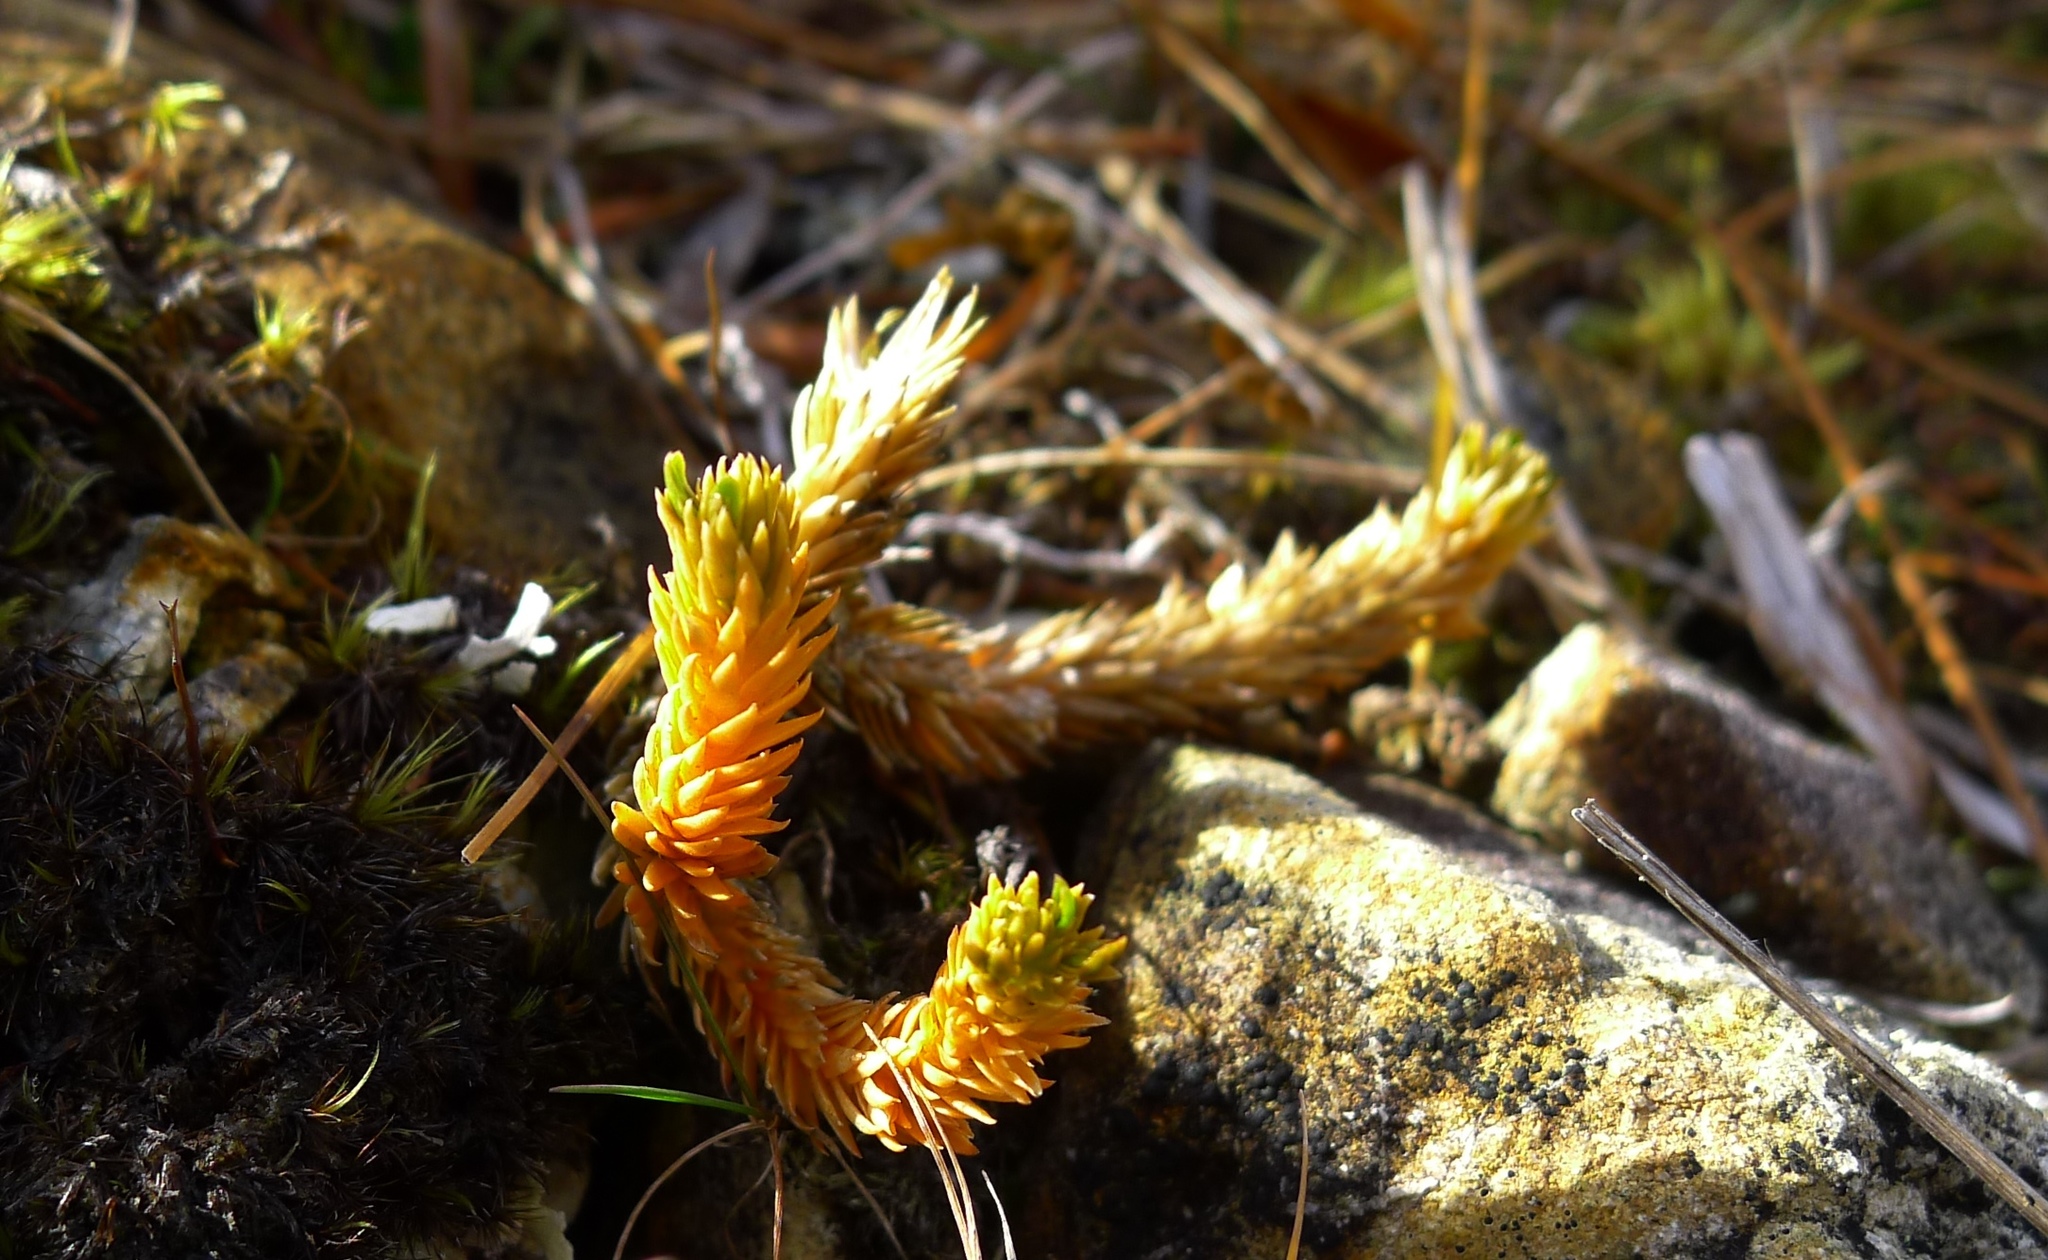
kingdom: Plantae
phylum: Tracheophyta
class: Lycopodiopsida
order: Lycopodiales
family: Lycopodiaceae
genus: Huperzia
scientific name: Huperzia australiana
